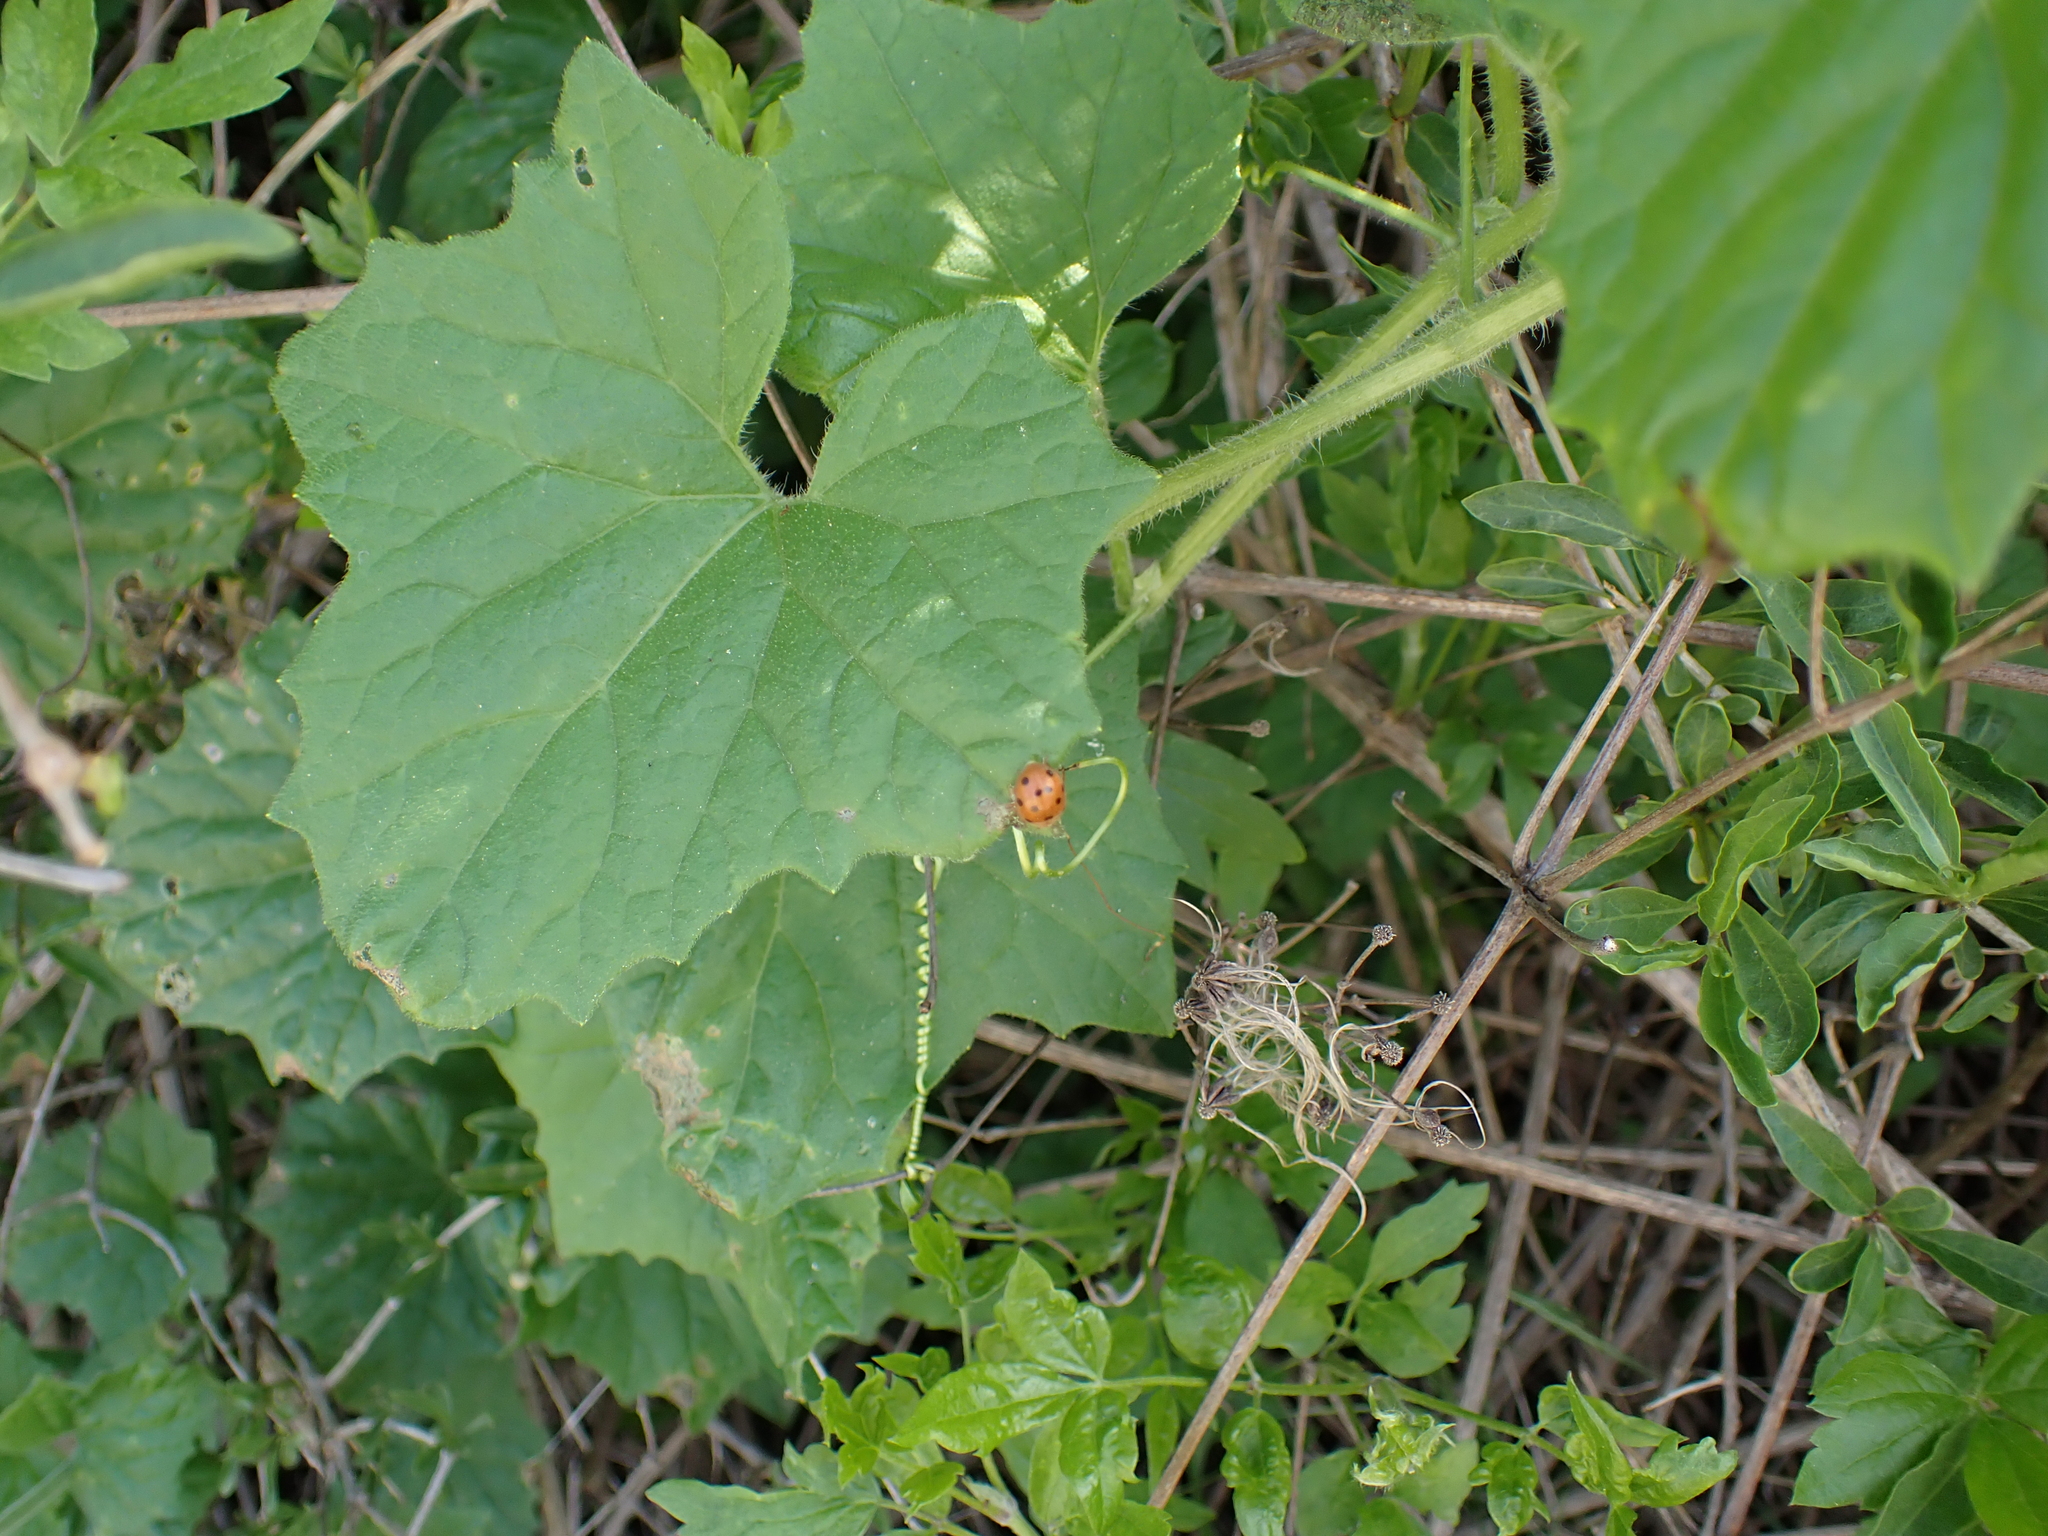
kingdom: Plantae
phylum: Tracheophyta
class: Magnoliopsida
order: Cucurbitales
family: Cucurbitaceae
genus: Bryonia
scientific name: Bryonia dioica
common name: White bryony
